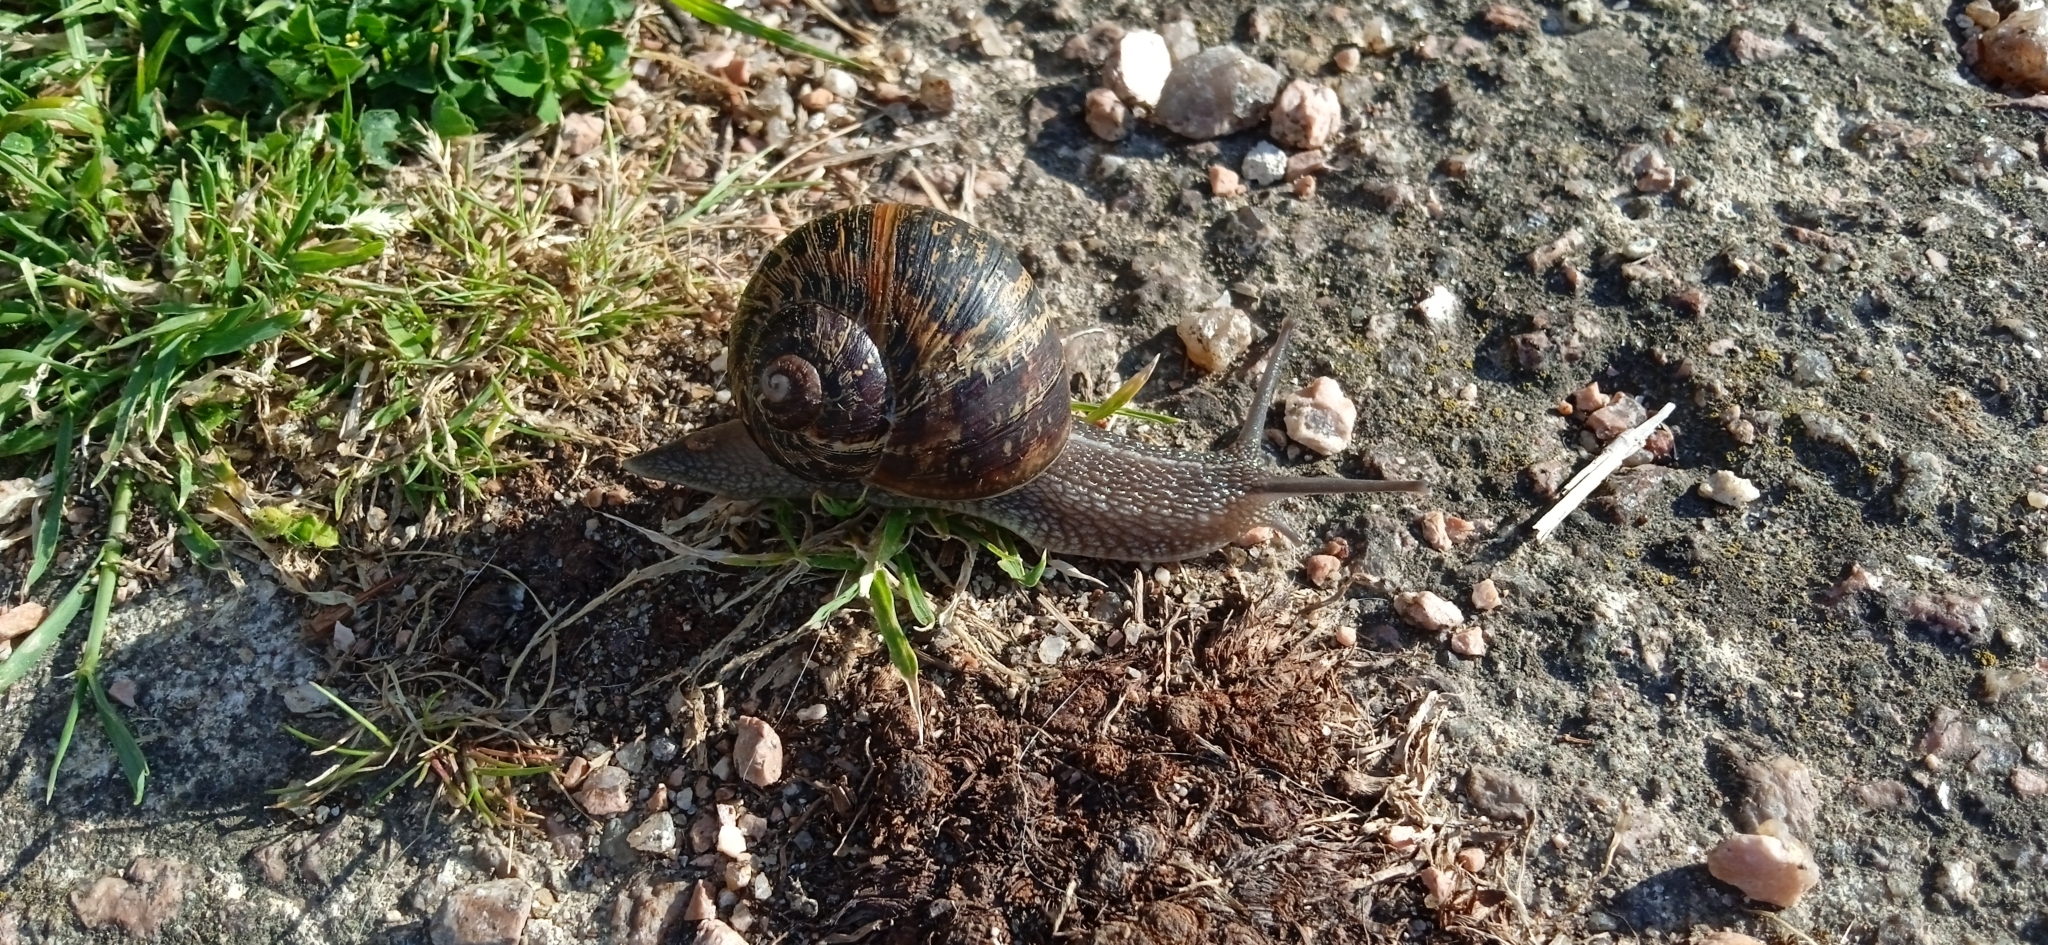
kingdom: Animalia
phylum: Mollusca
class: Gastropoda
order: Stylommatophora
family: Helicidae
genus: Cornu
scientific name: Cornu aspersum
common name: Brown garden snail
